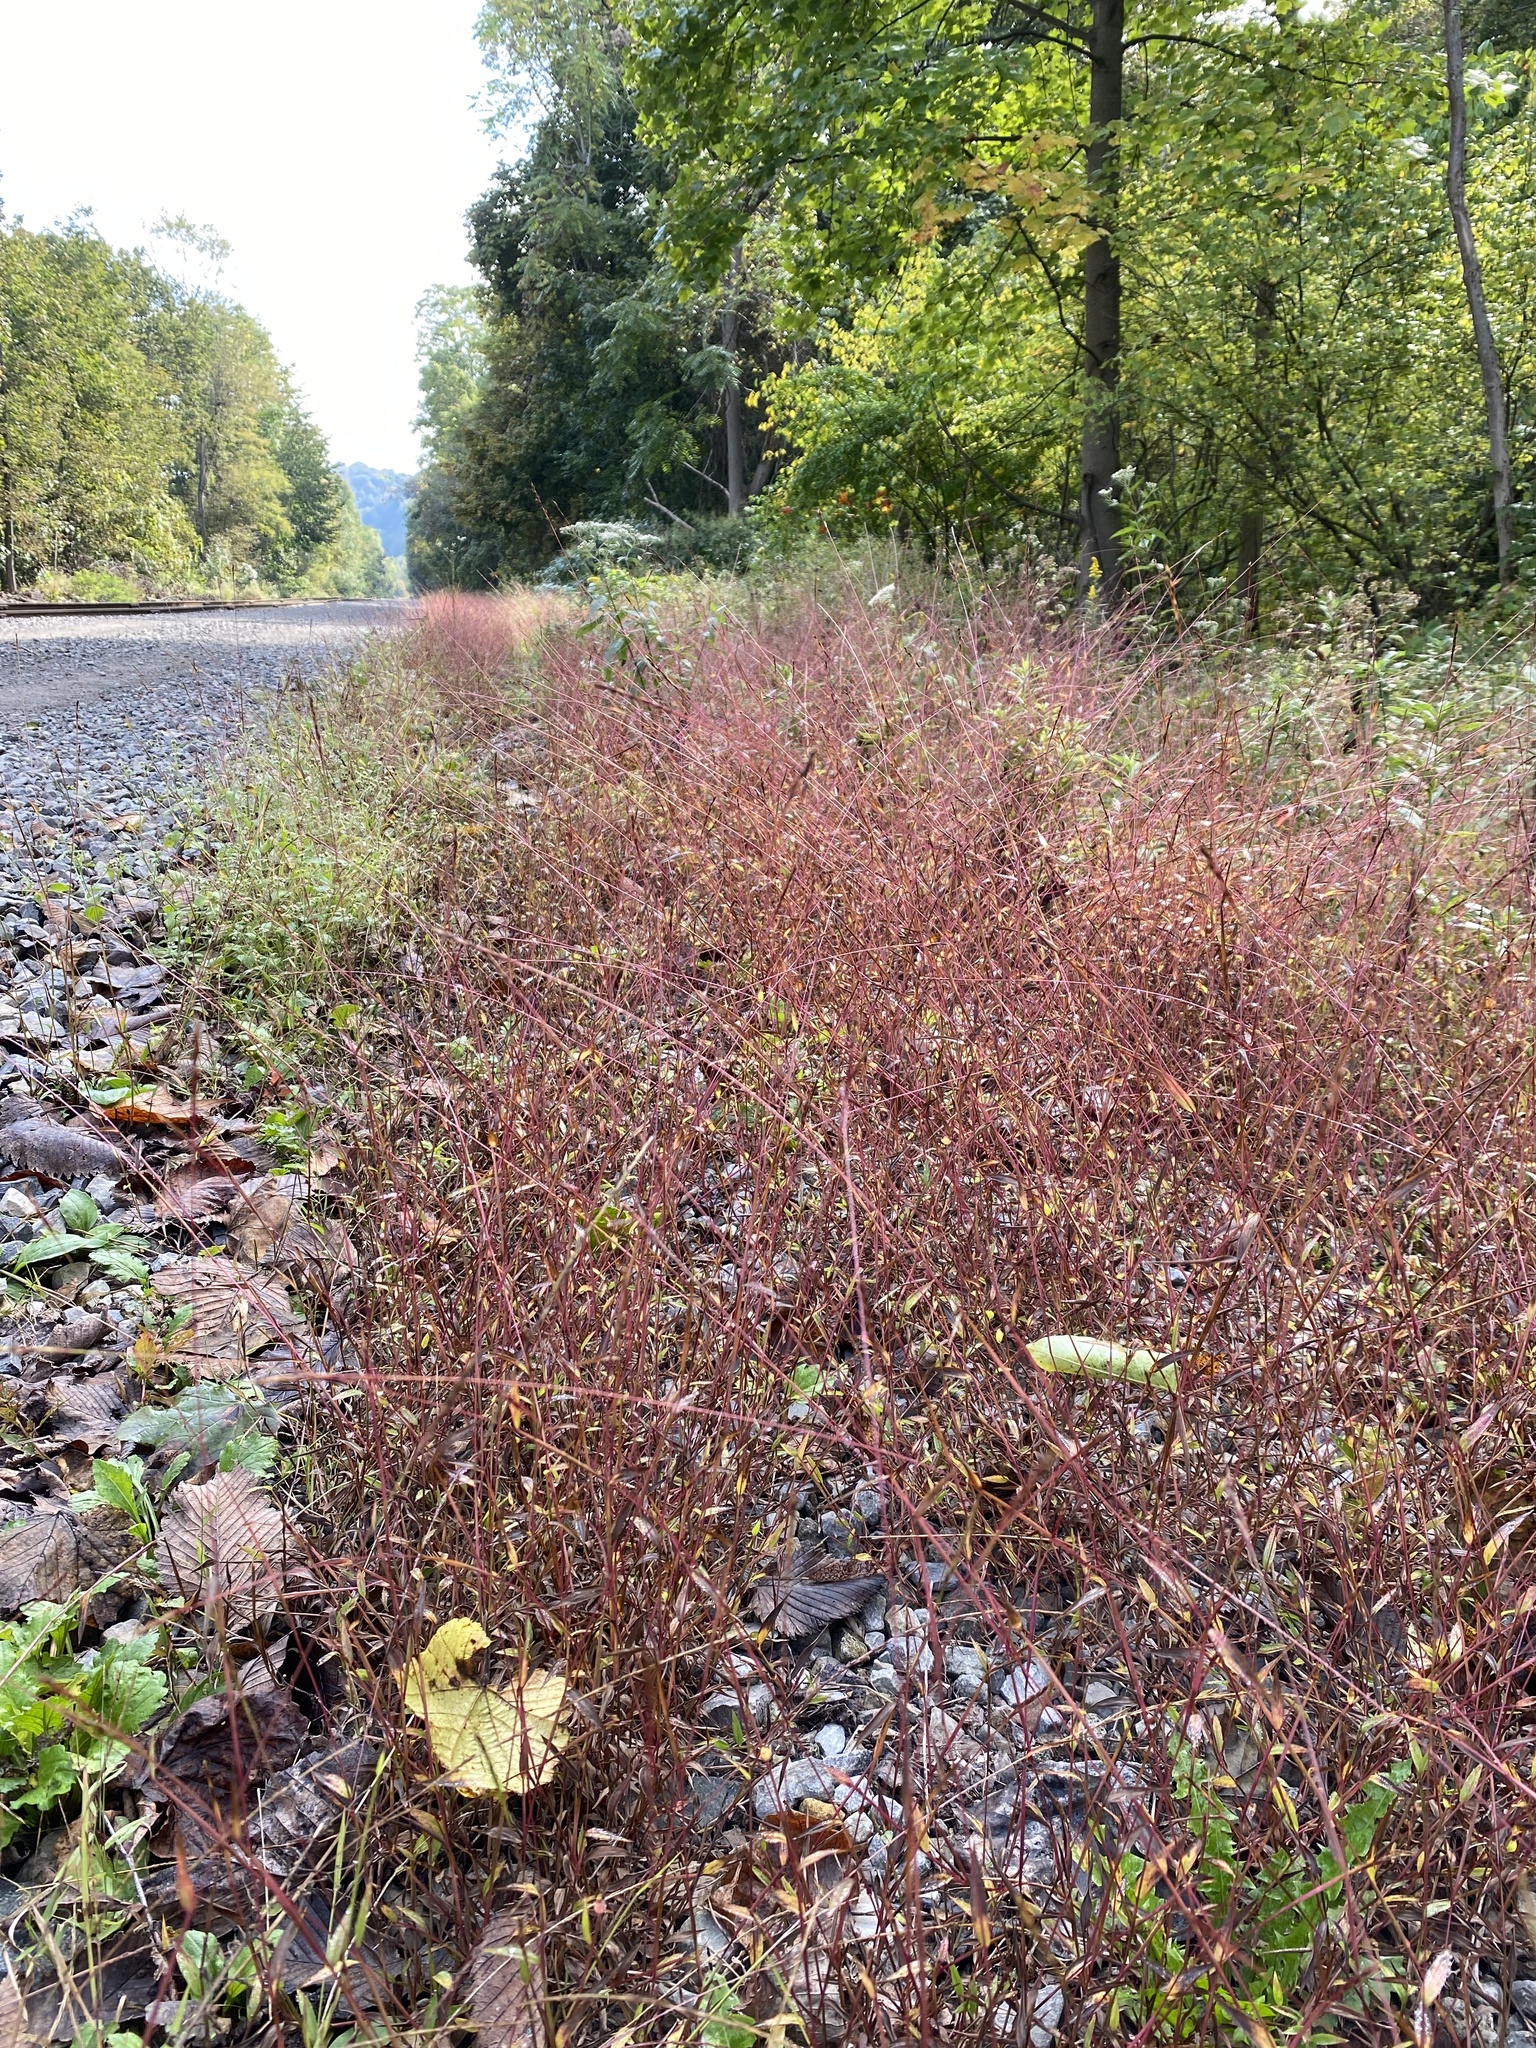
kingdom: Plantae
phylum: Tracheophyta
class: Liliopsida
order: Poales
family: Poaceae
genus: Microstegium
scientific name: Microstegium vimineum
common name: Japanese stiltgrass
